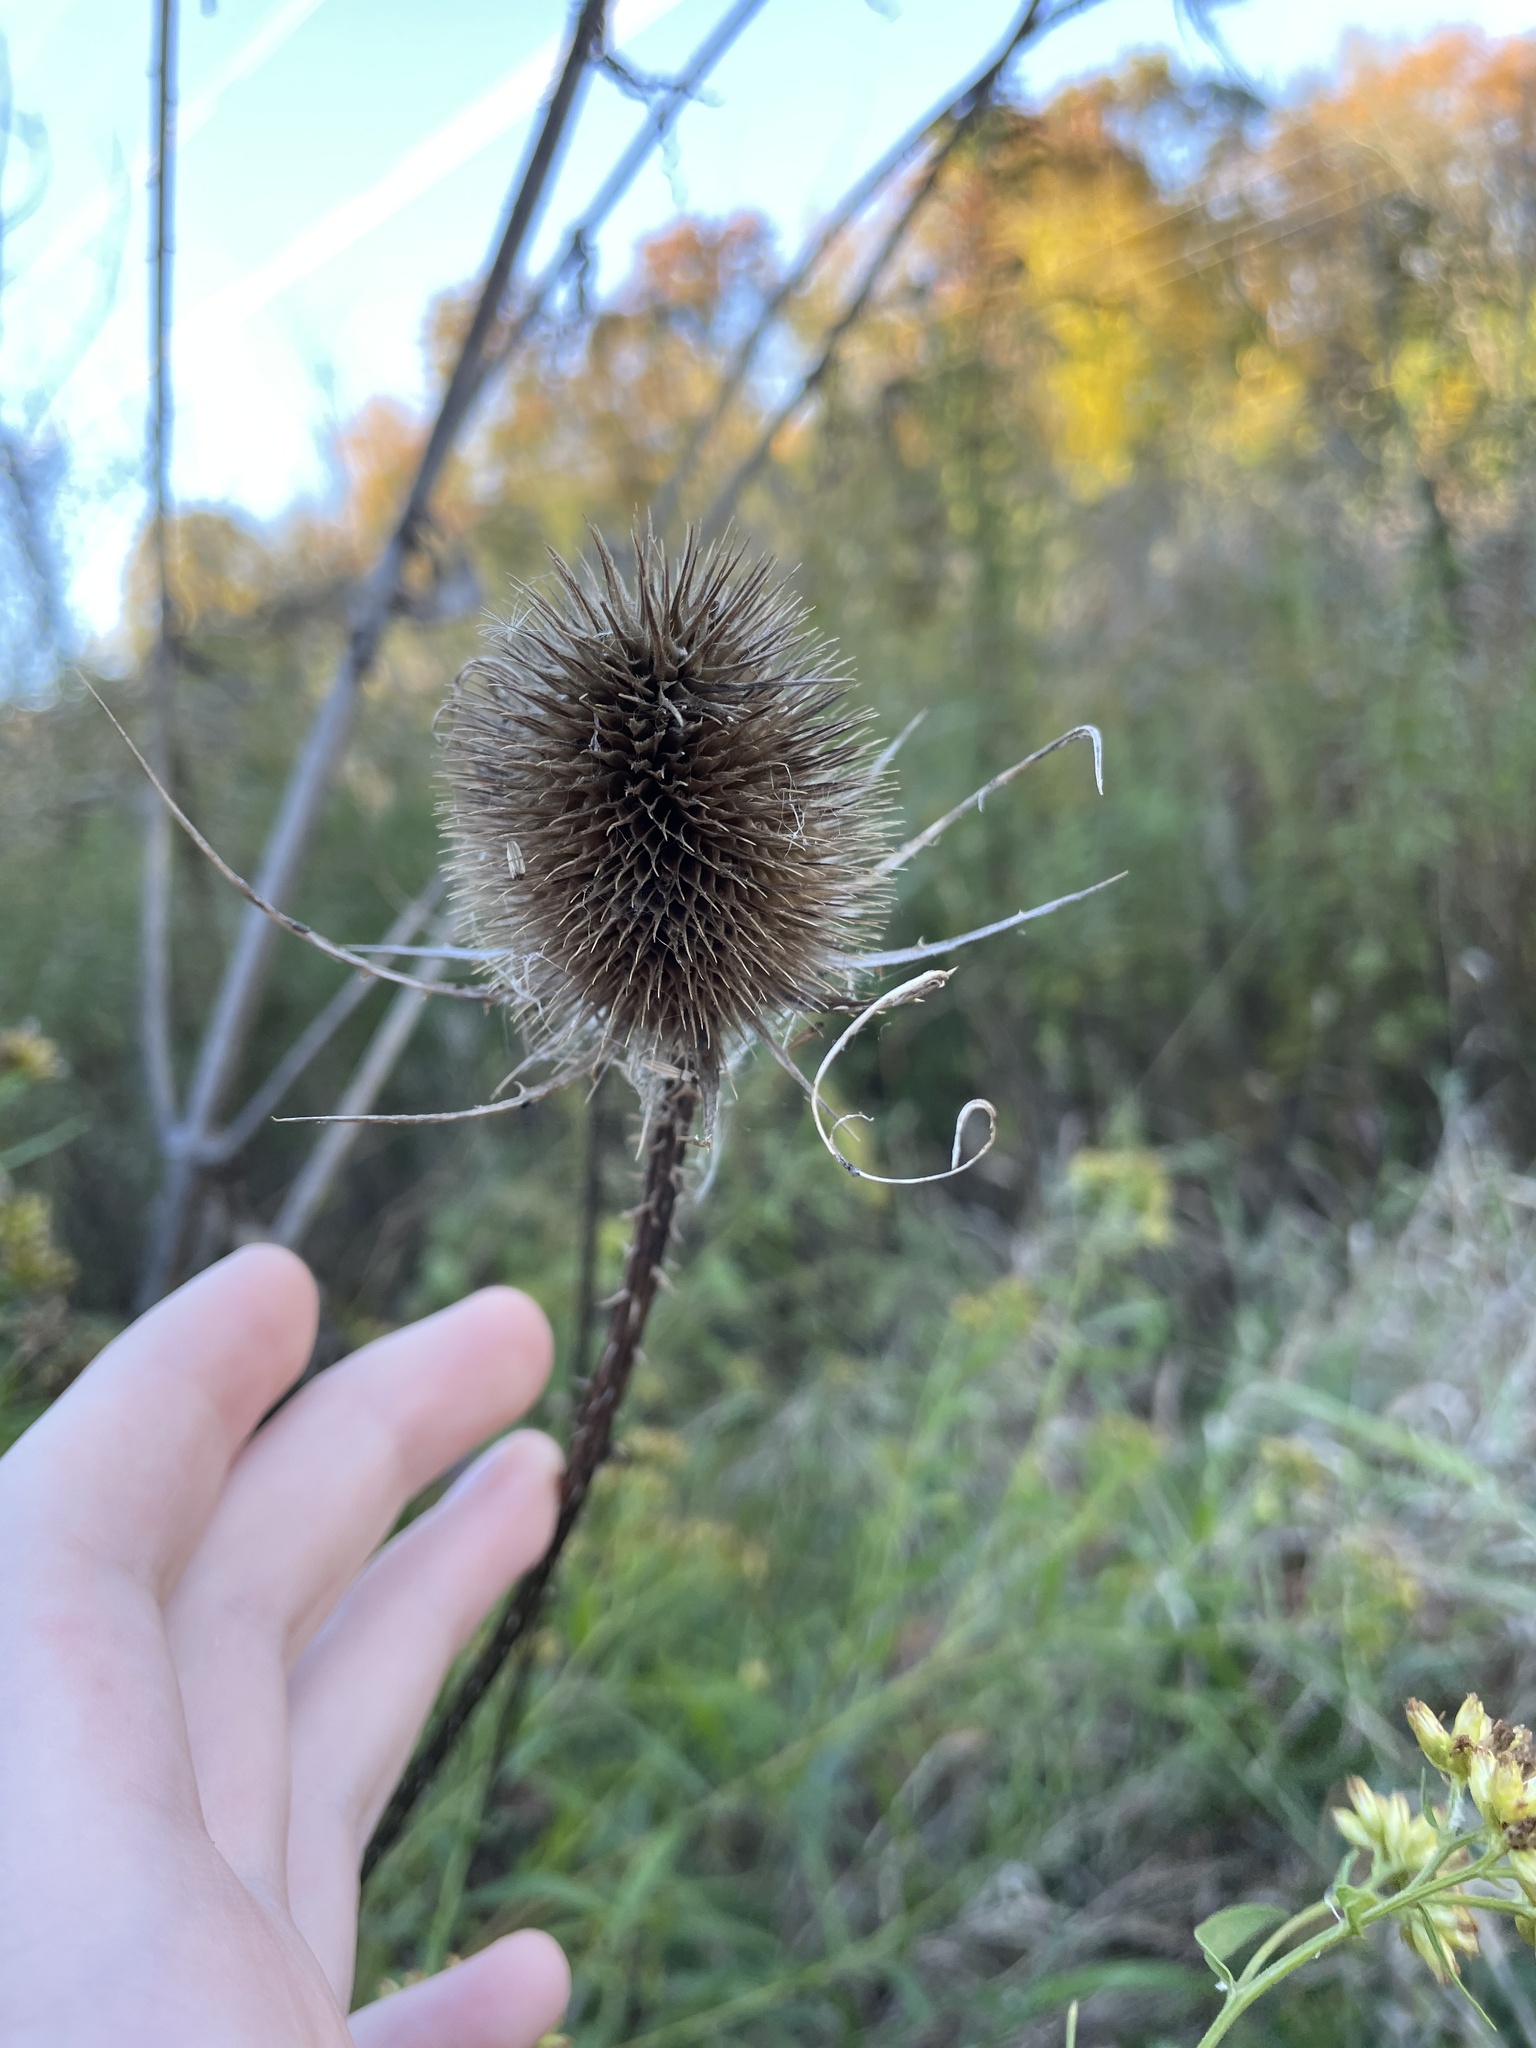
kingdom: Plantae
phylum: Tracheophyta
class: Magnoliopsida
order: Dipsacales
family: Caprifoliaceae
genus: Dipsacus
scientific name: Dipsacus fullonum
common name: Teasel
